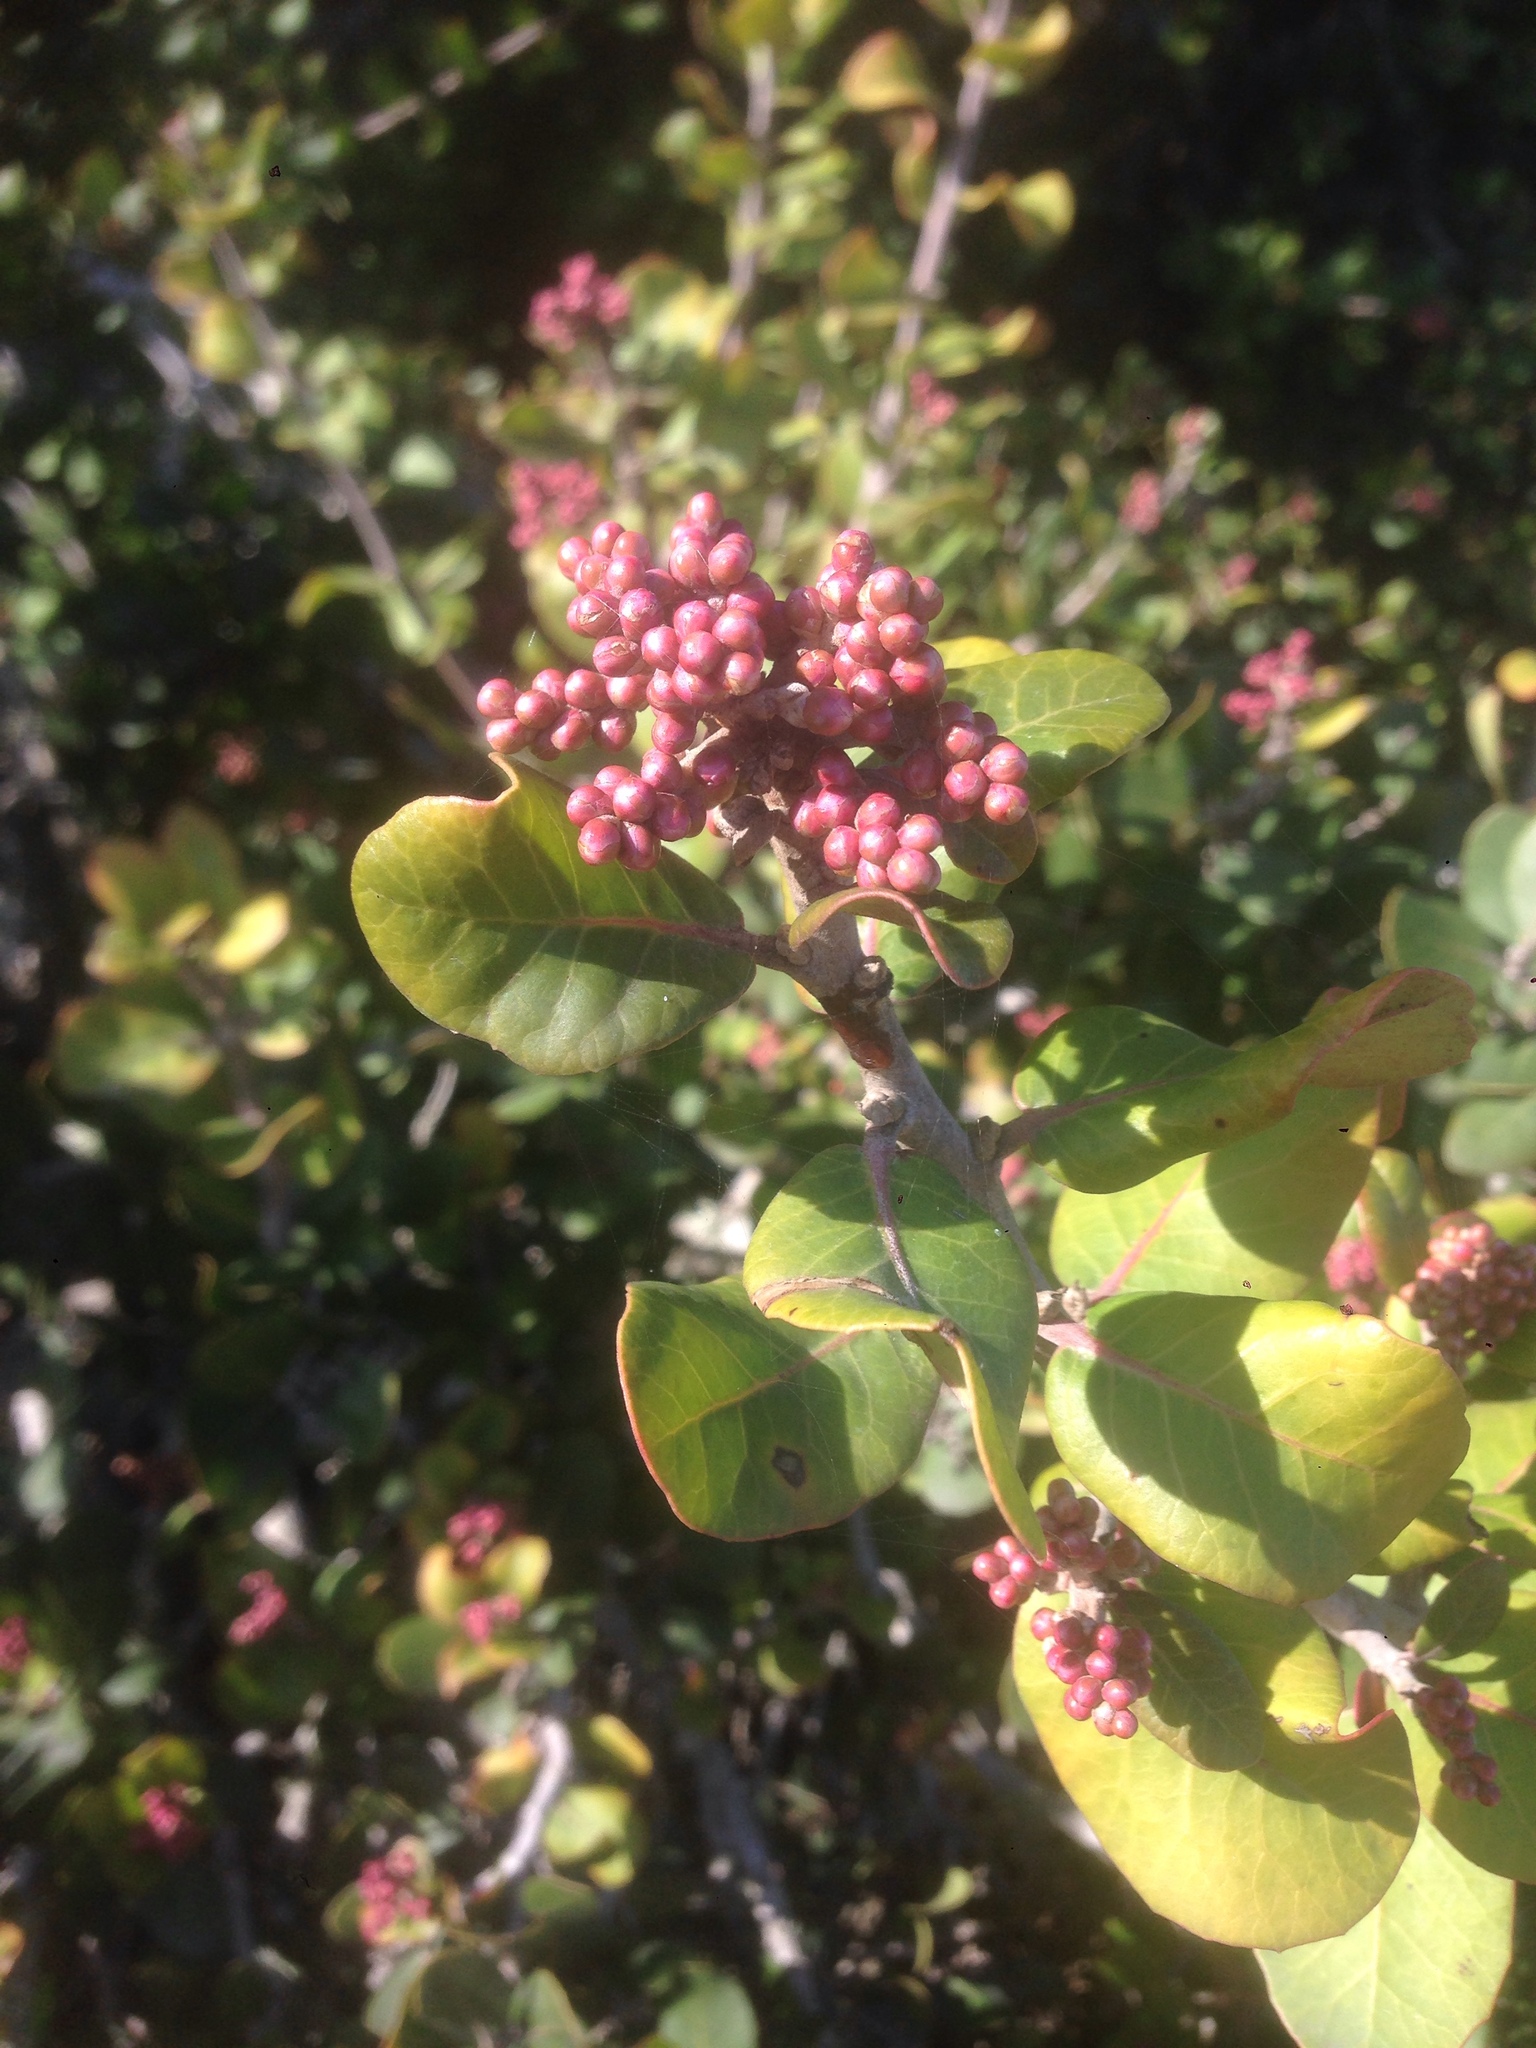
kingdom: Plantae
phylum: Tracheophyta
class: Magnoliopsida
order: Sapindales
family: Anacardiaceae
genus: Rhus
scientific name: Rhus integrifolia
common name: Lemonade sumac
